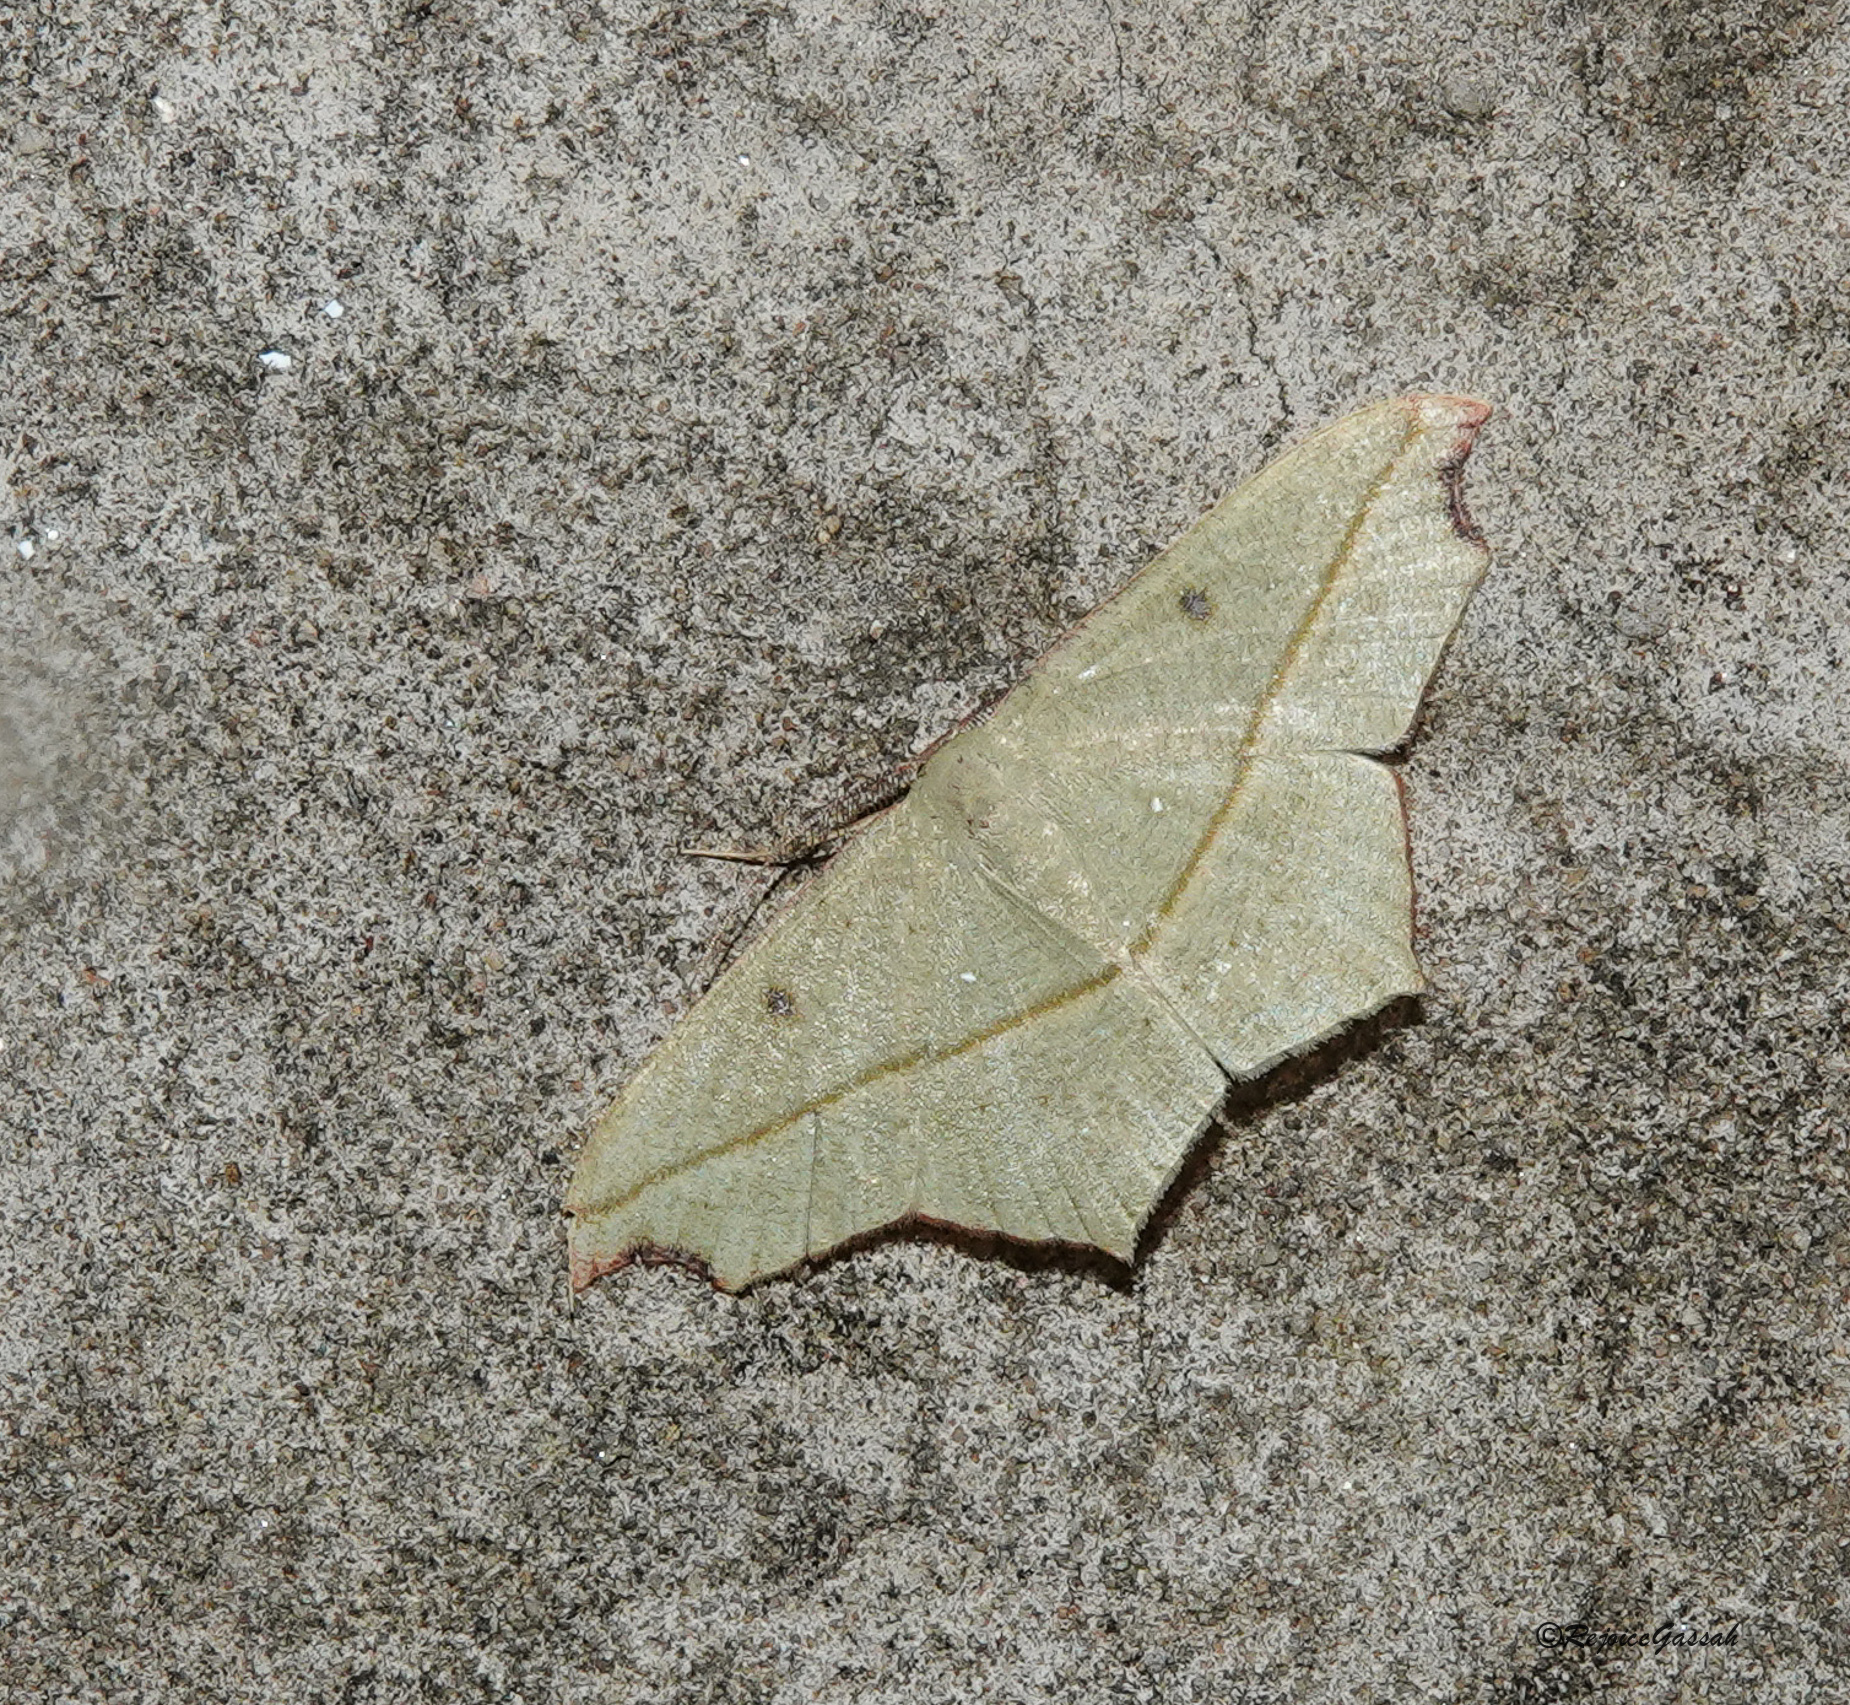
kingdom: Animalia
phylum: Arthropoda
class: Insecta
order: Lepidoptera
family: Geometridae
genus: Traminda
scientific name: Traminda aventiaria
